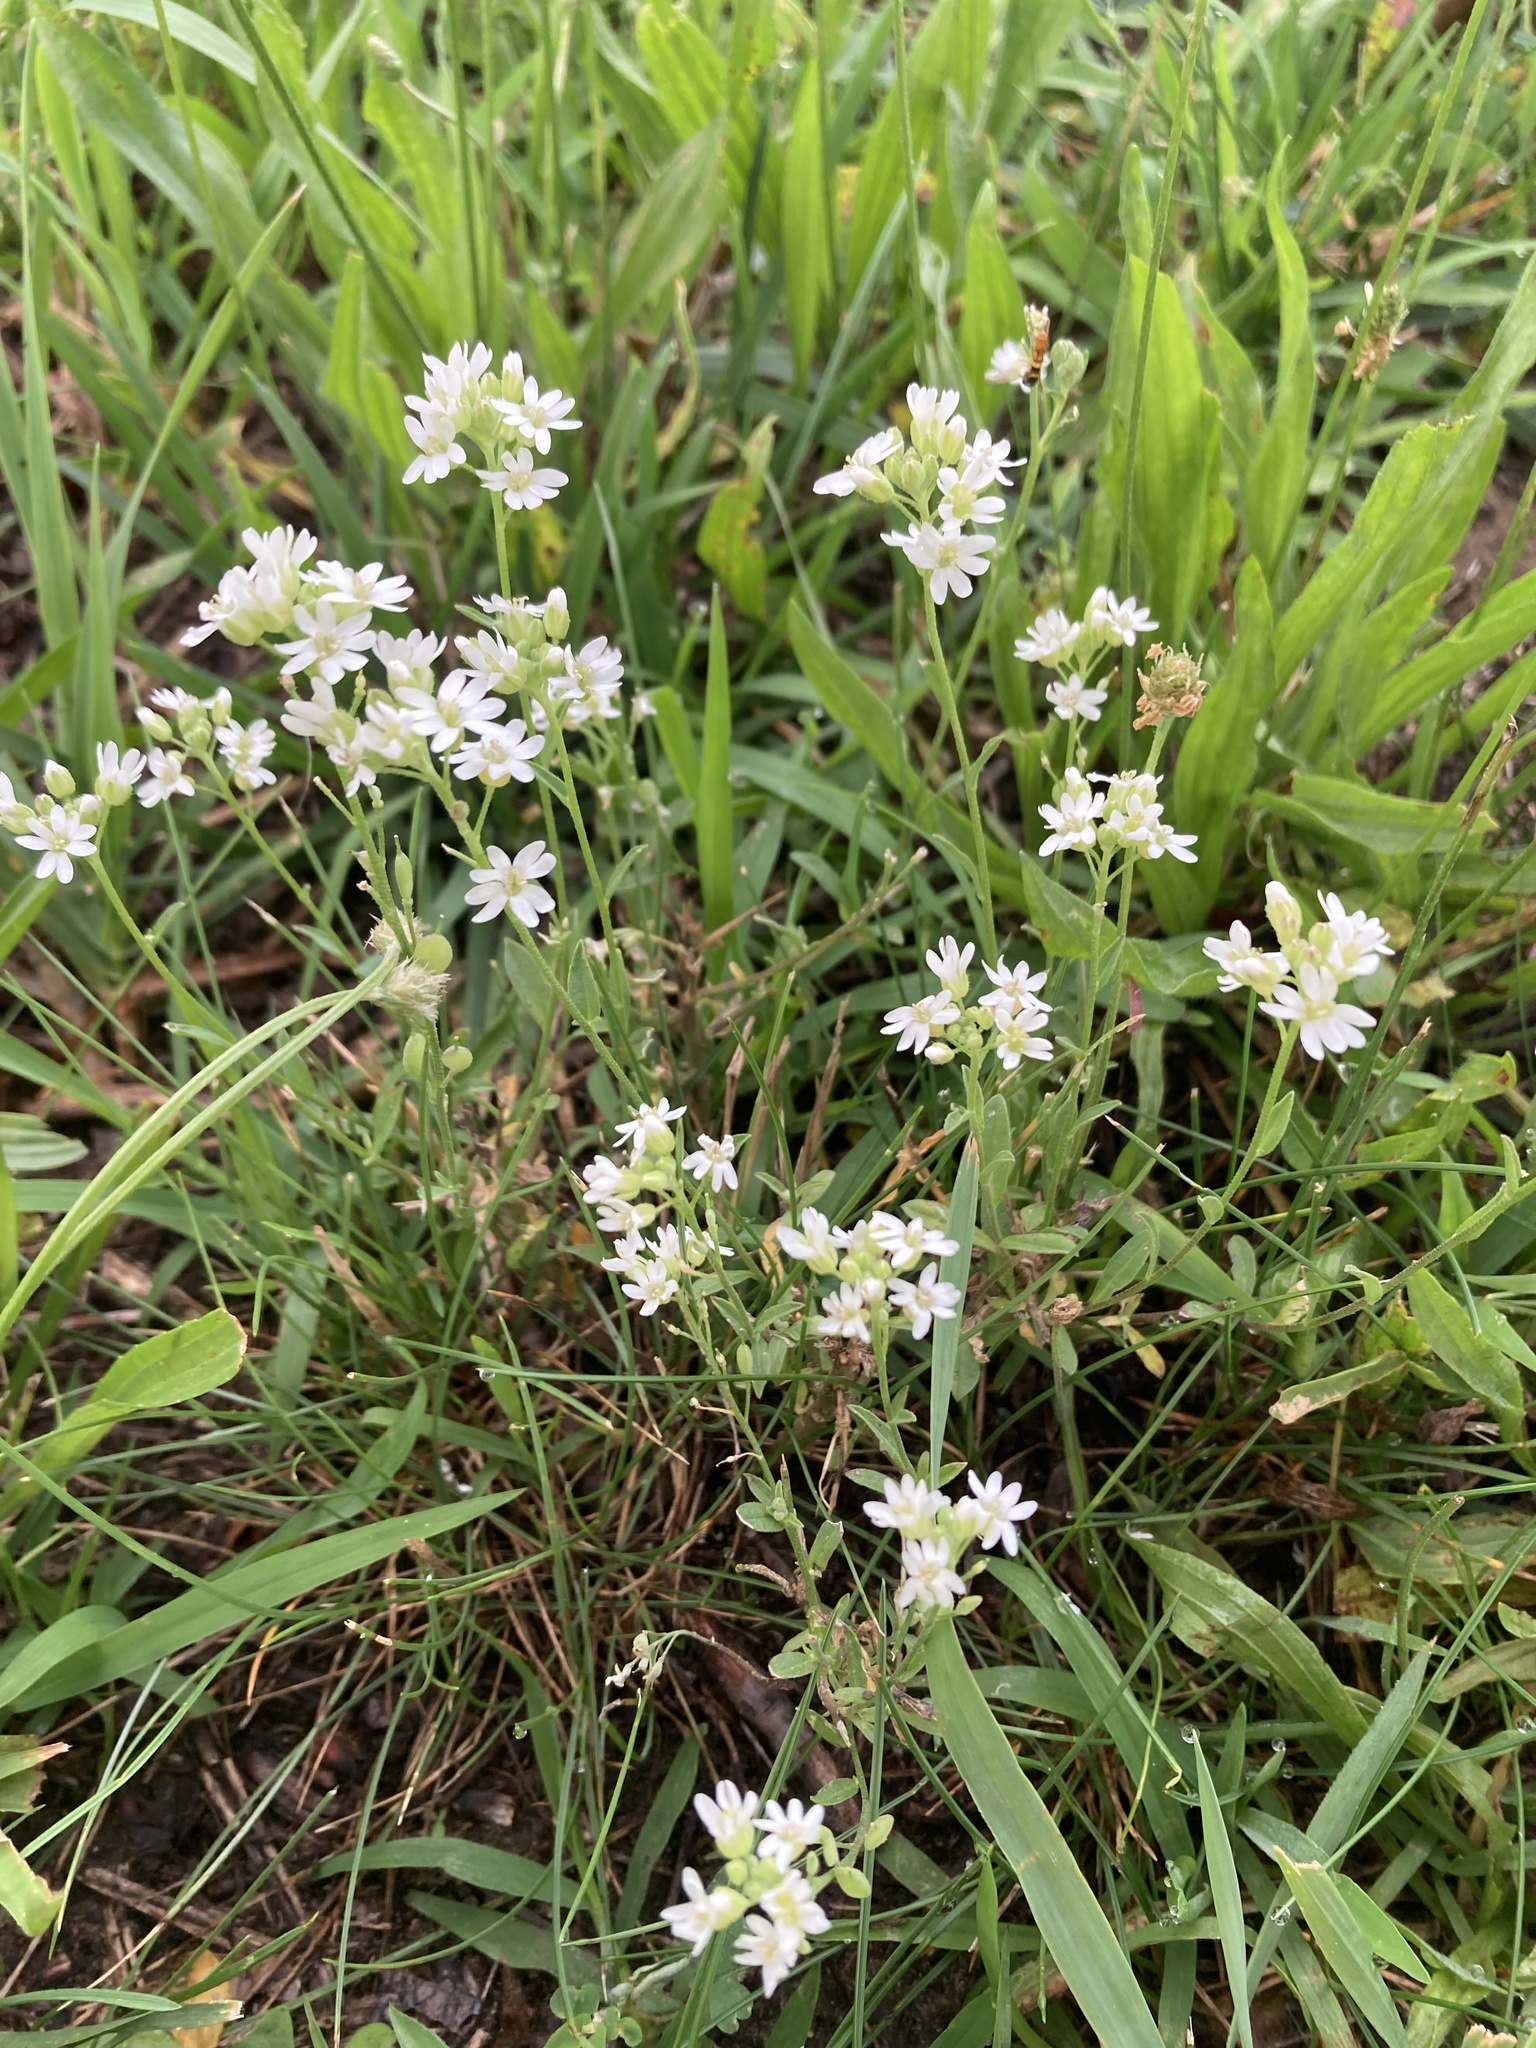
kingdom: Plantae
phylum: Tracheophyta
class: Magnoliopsida
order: Brassicales
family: Brassicaceae
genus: Berteroa
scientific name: Berteroa incana
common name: Hoary alison
